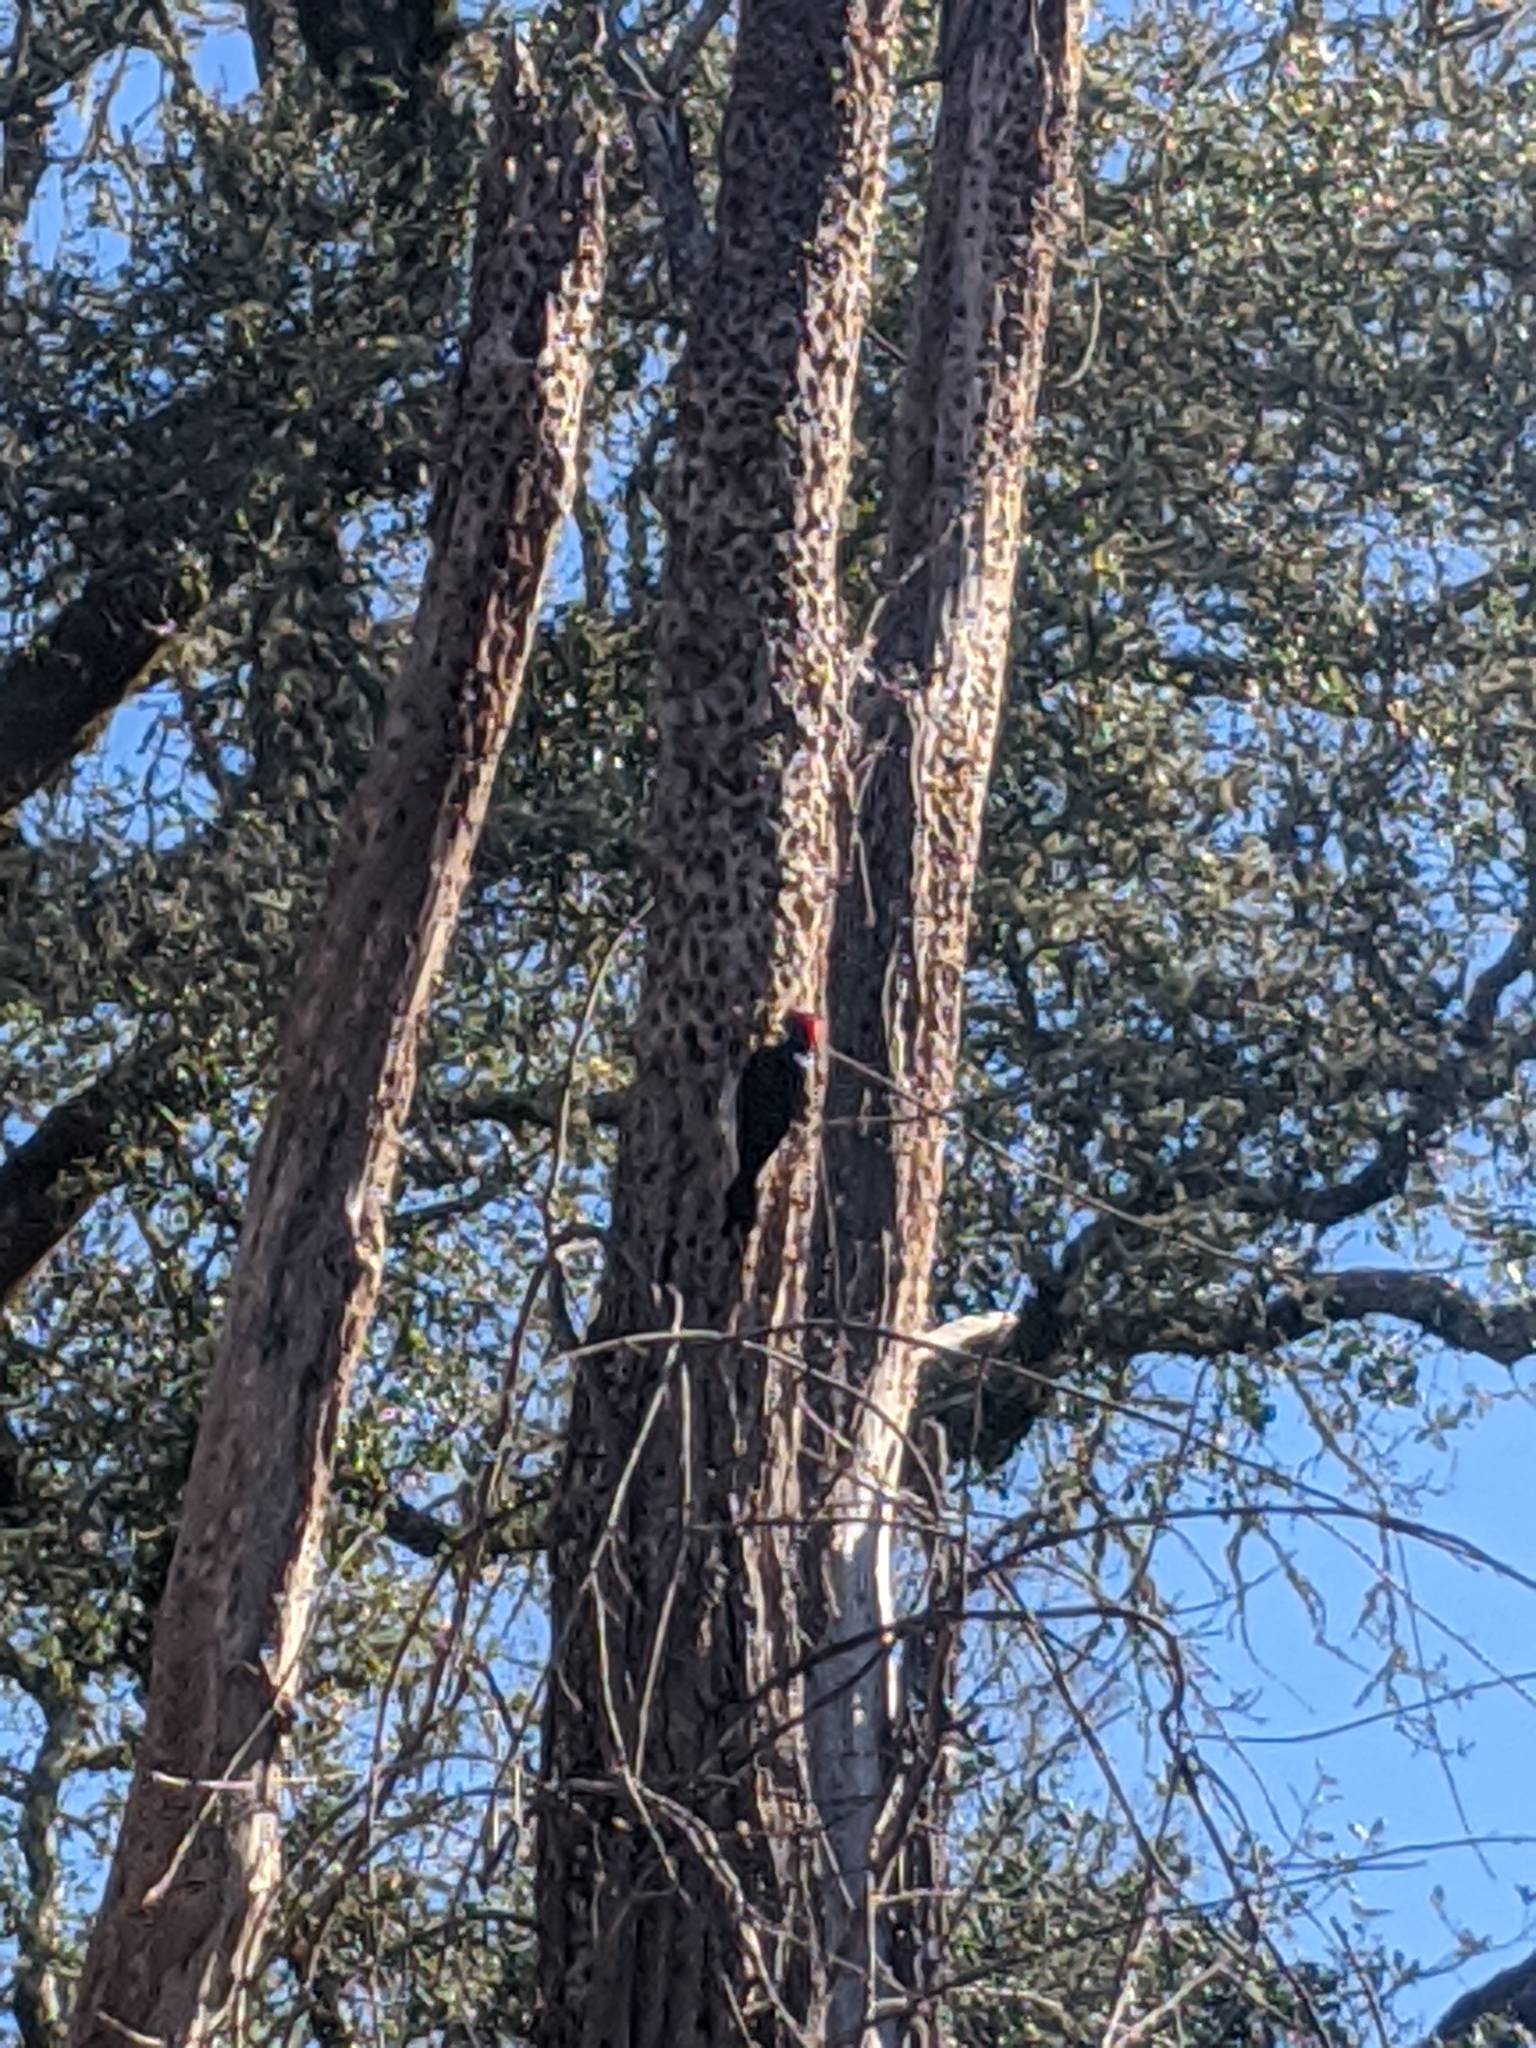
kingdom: Animalia
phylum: Chordata
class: Aves
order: Piciformes
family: Picidae
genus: Melanerpes
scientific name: Melanerpes formicivorus
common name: Acorn woodpecker
